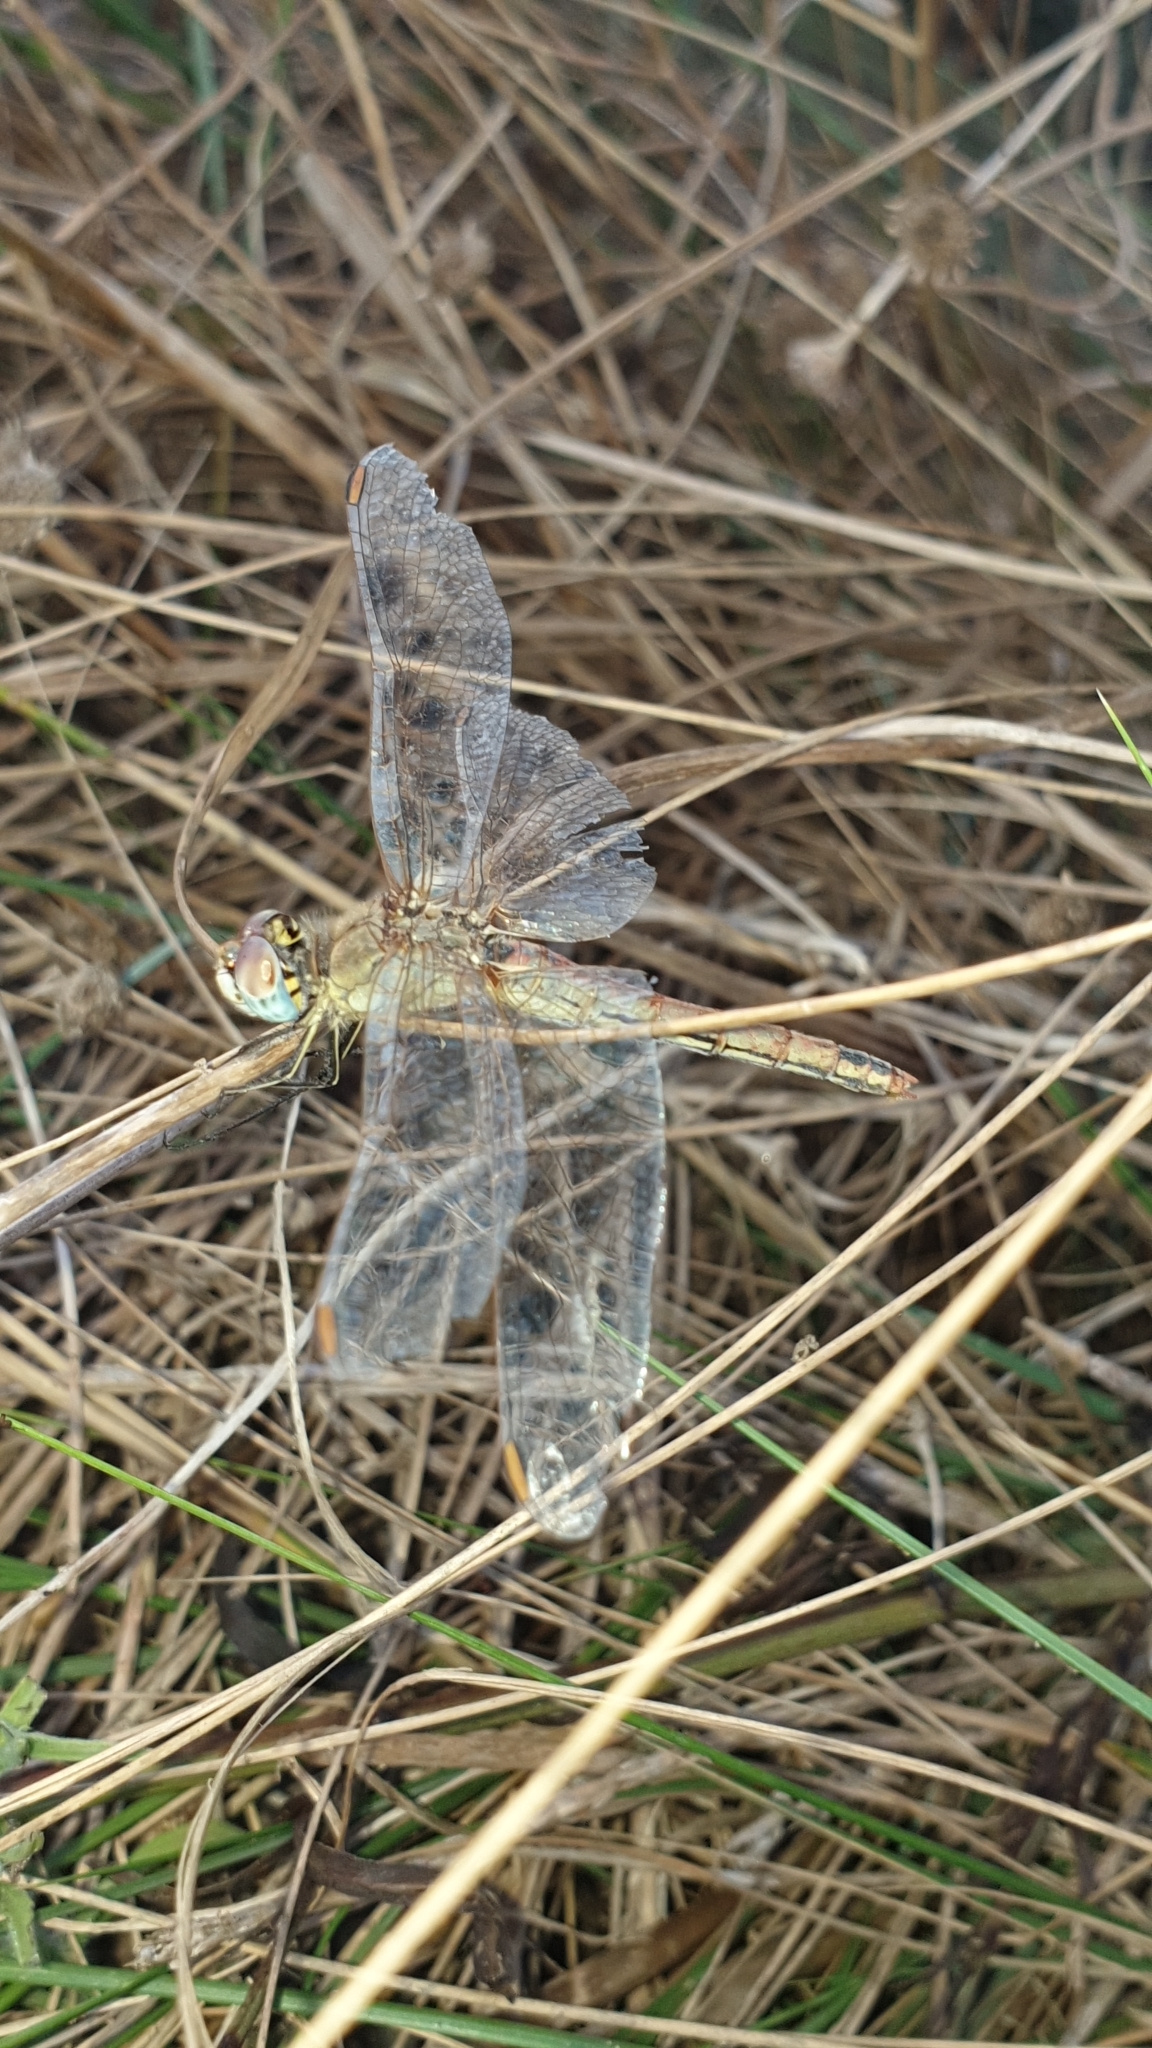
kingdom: Animalia
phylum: Arthropoda
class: Insecta
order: Odonata
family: Libellulidae
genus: Sympetrum
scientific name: Sympetrum fonscolombii
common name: Red-veined darter
